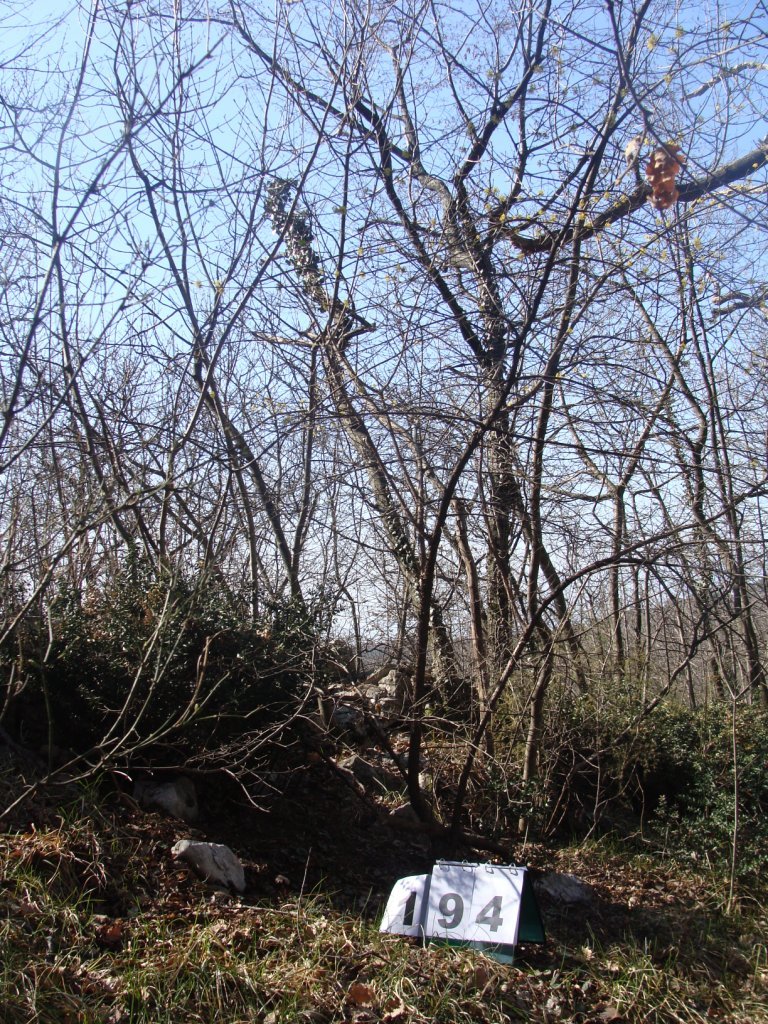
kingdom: Plantae
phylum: Tracheophyta
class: Magnoliopsida
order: Cornales
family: Cornaceae
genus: Cornus
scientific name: Cornus mas
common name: Cornelian-cherry
